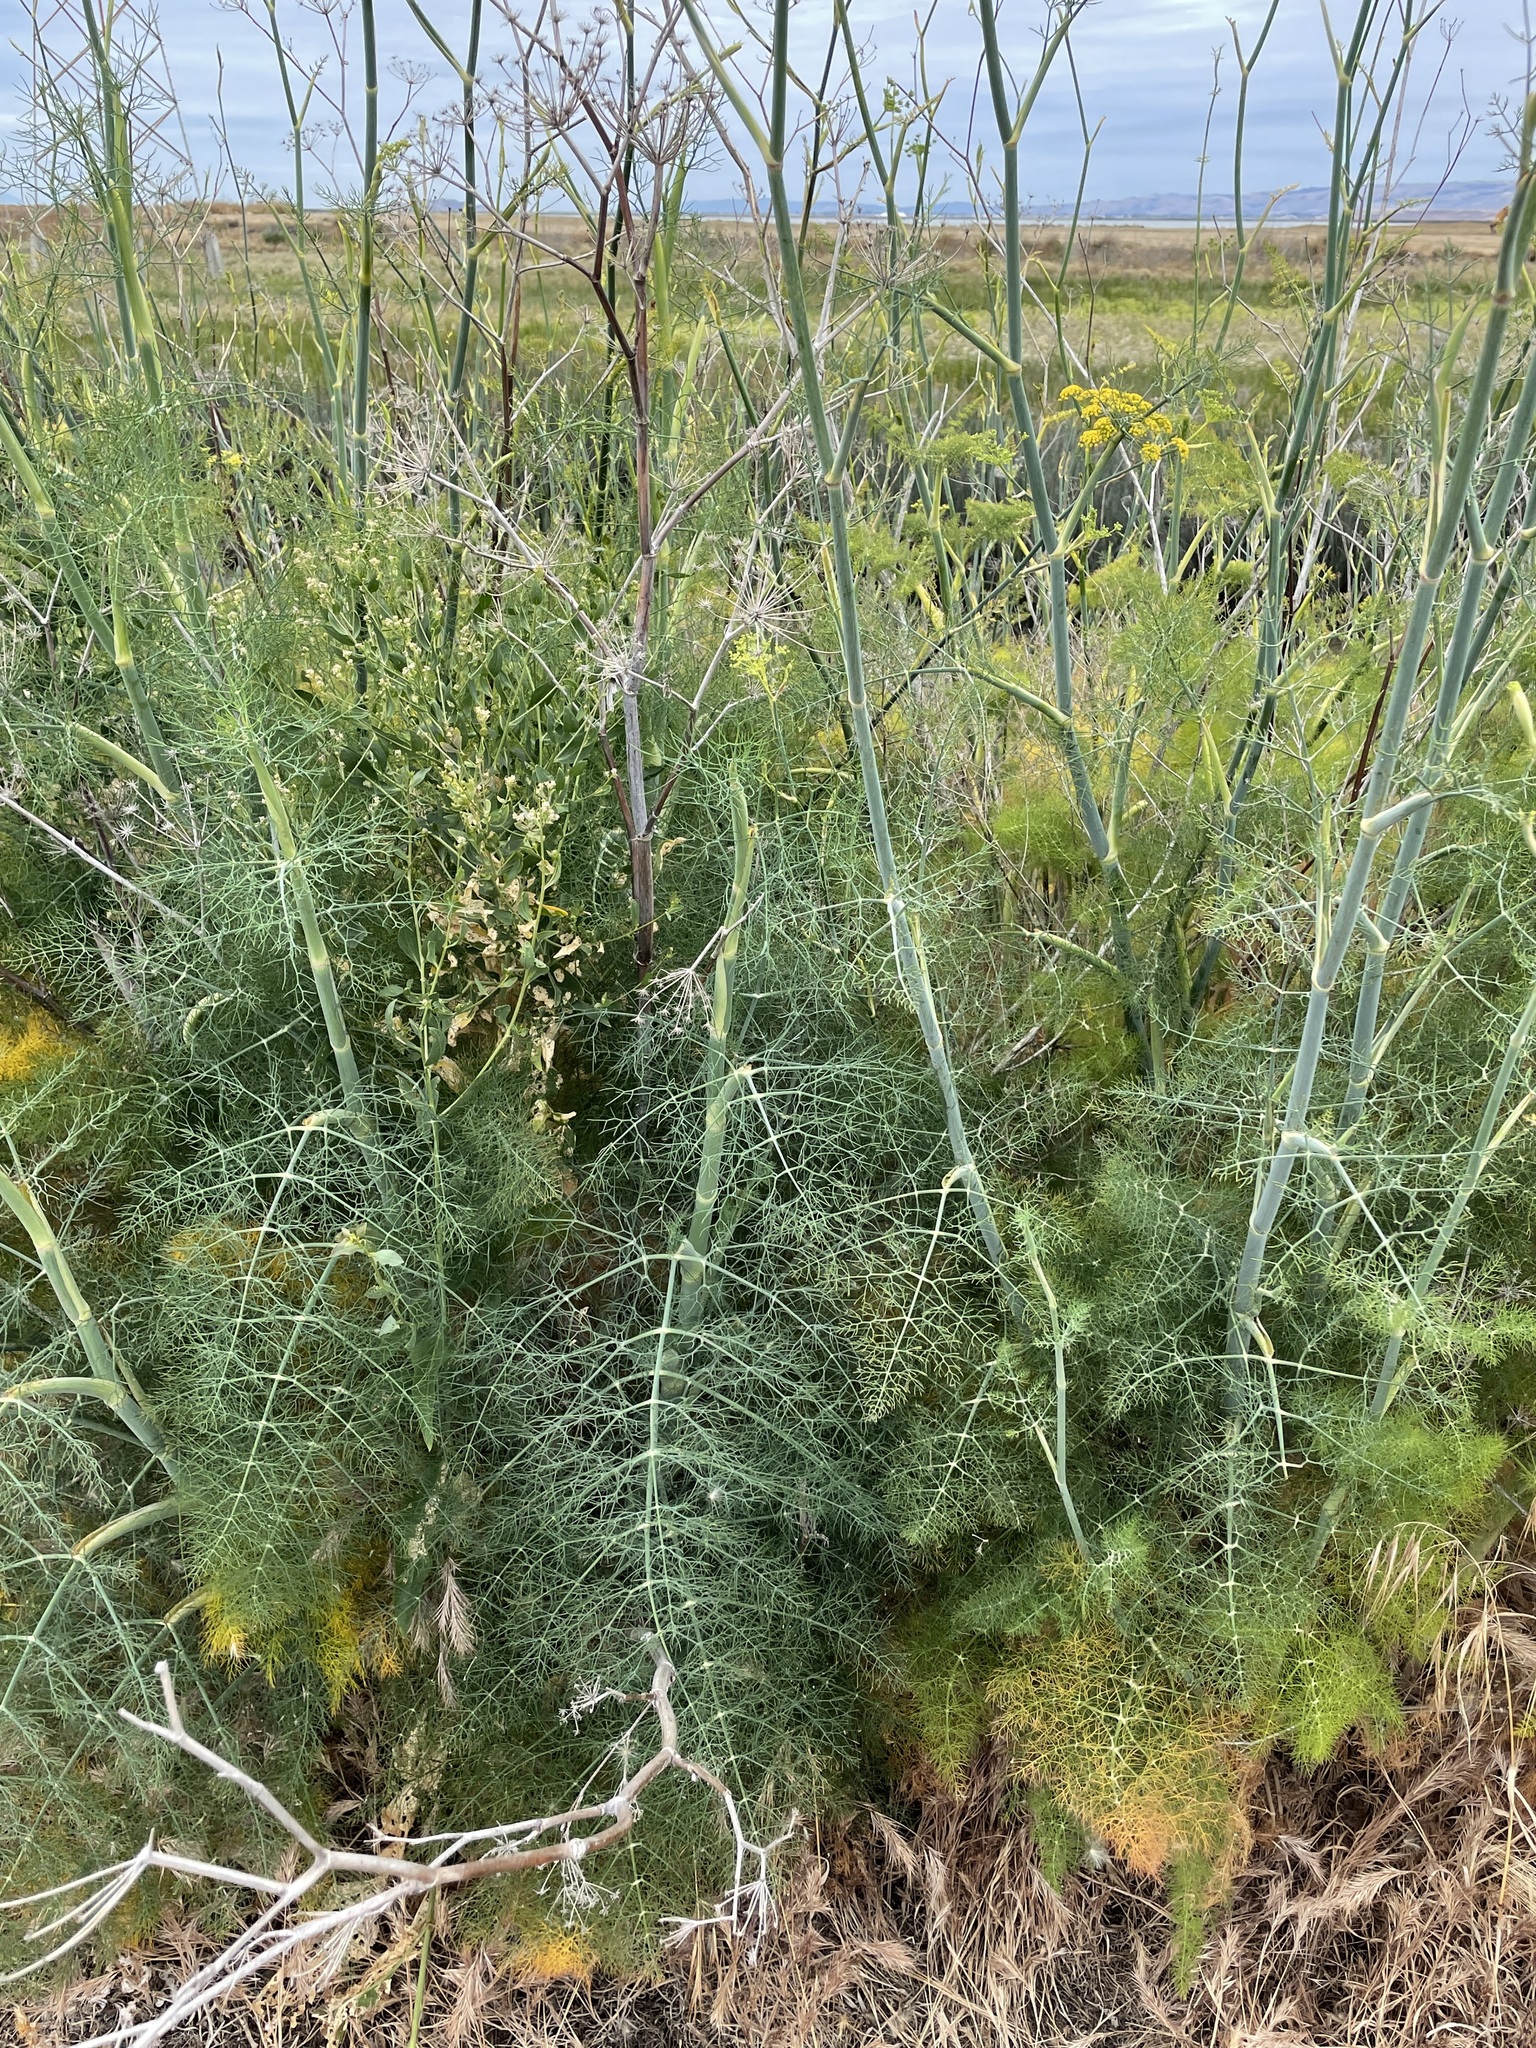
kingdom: Plantae
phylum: Tracheophyta
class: Magnoliopsida
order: Apiales
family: Apiaceae
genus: Foeniculum
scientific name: Foeniculum vulgare
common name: Fennel
